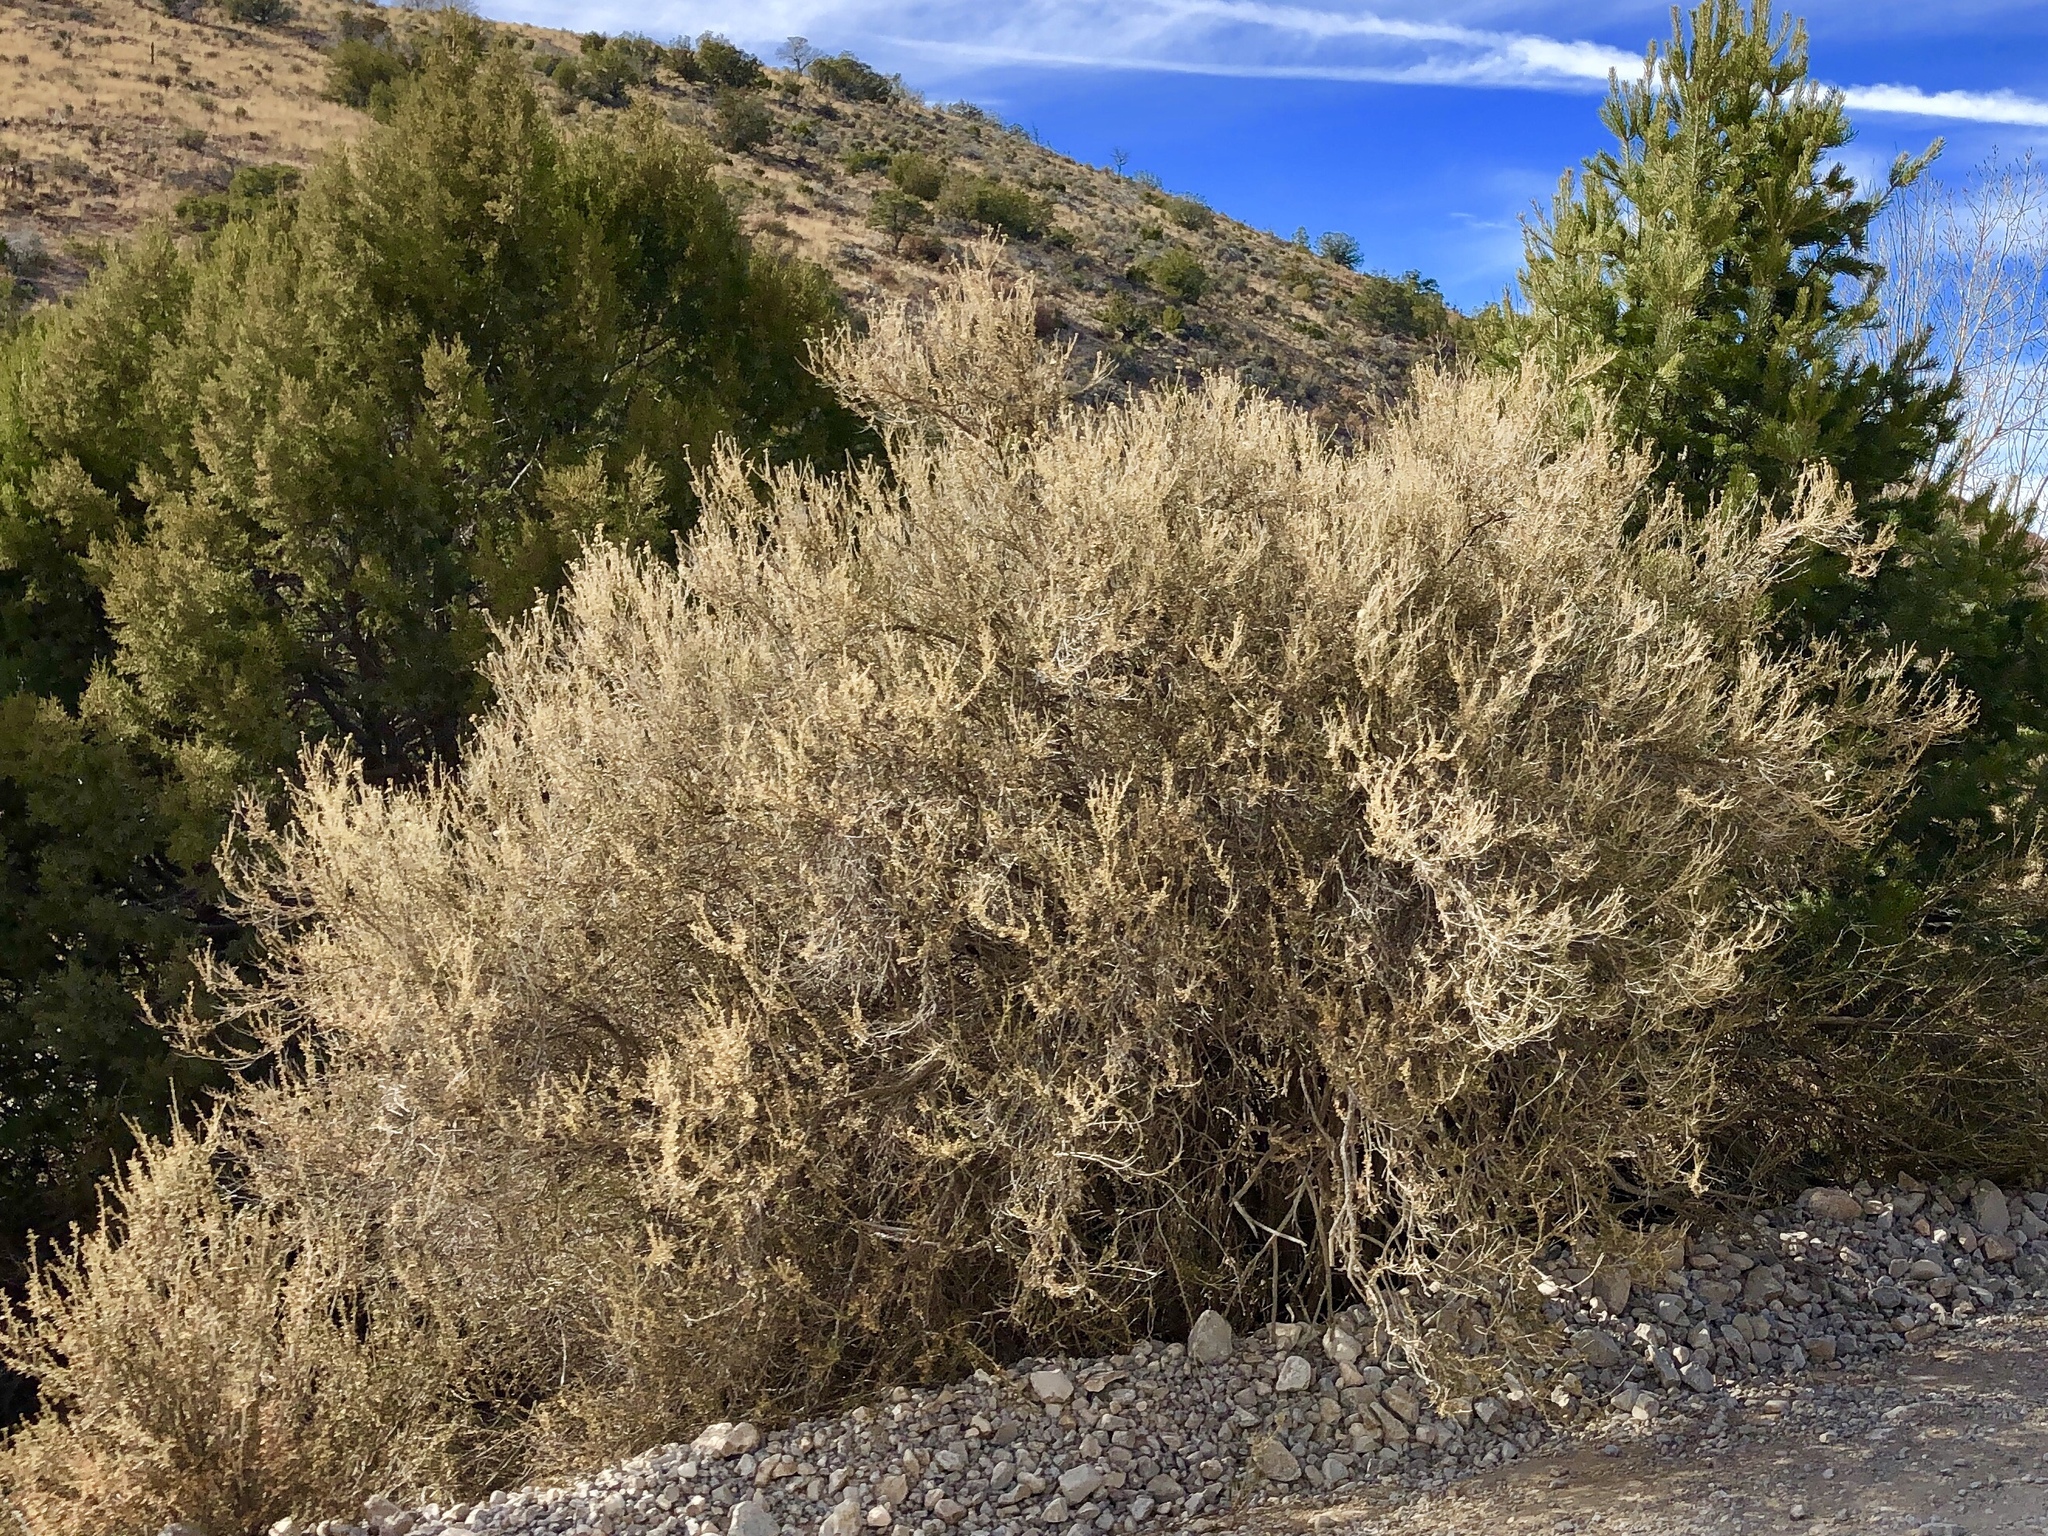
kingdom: Plantae
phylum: Tracheophyta
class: Magnoliopsida
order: Rosales
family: Rosaceae
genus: Fallugia
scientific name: Fallugia paradoxa
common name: Apache-plume
